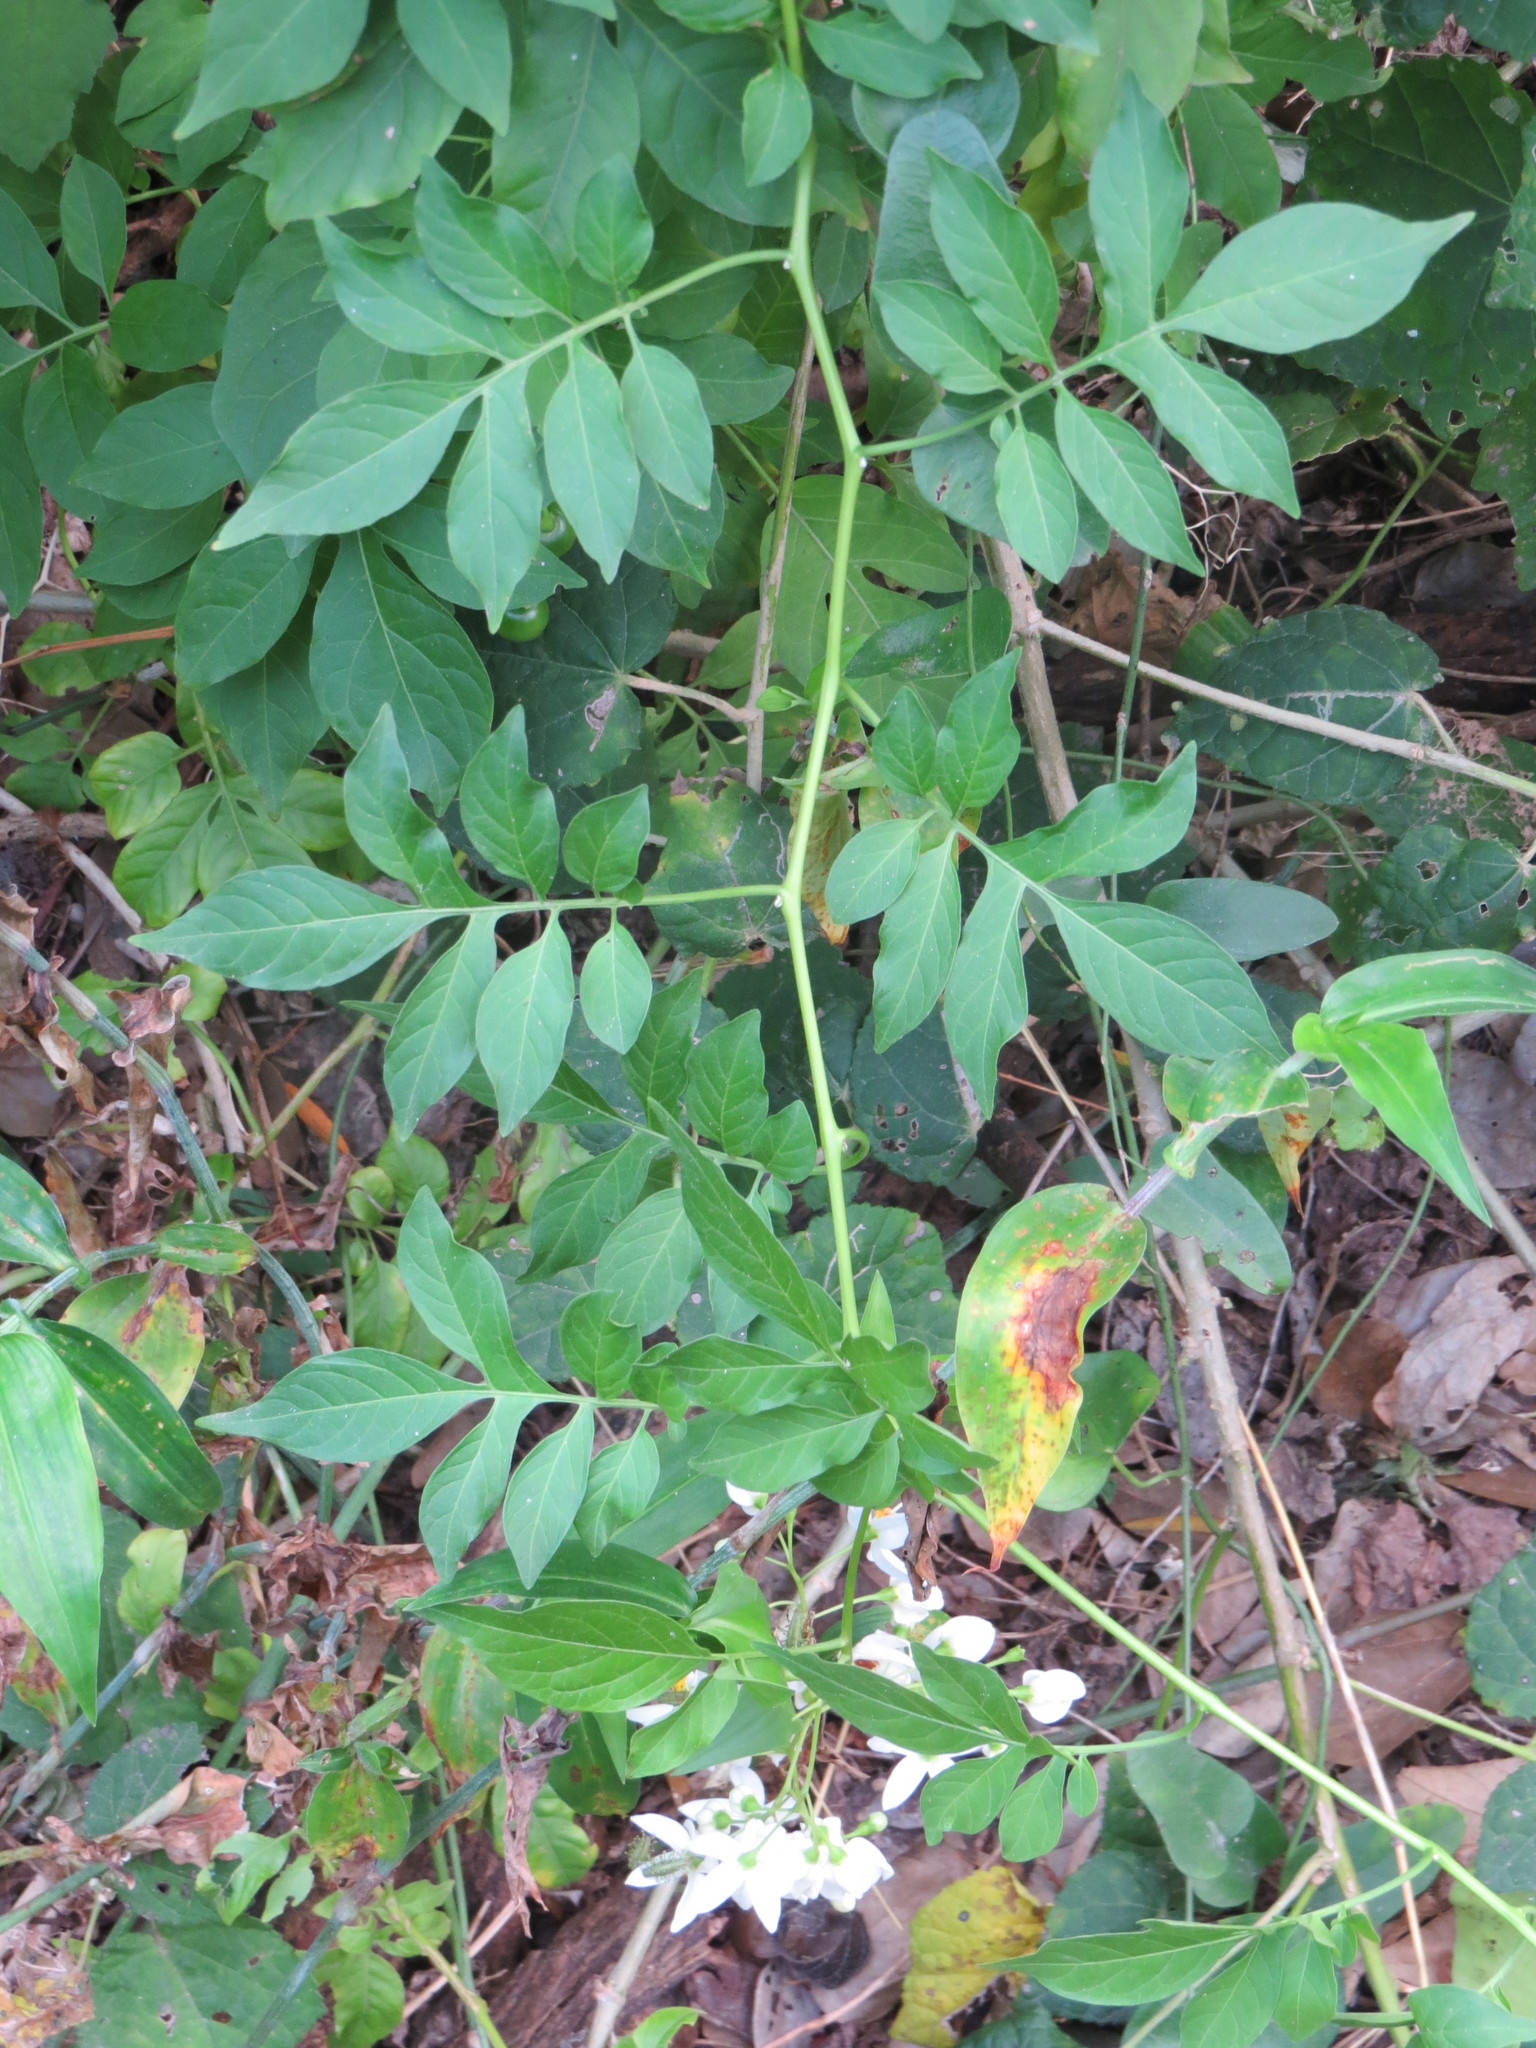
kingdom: Plantae
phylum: Tracheophyta
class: Magnoliopsida
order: Solanales
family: Solanaceae
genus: Solanum
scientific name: Solanum seaforthianum
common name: Brazilian nightshade
